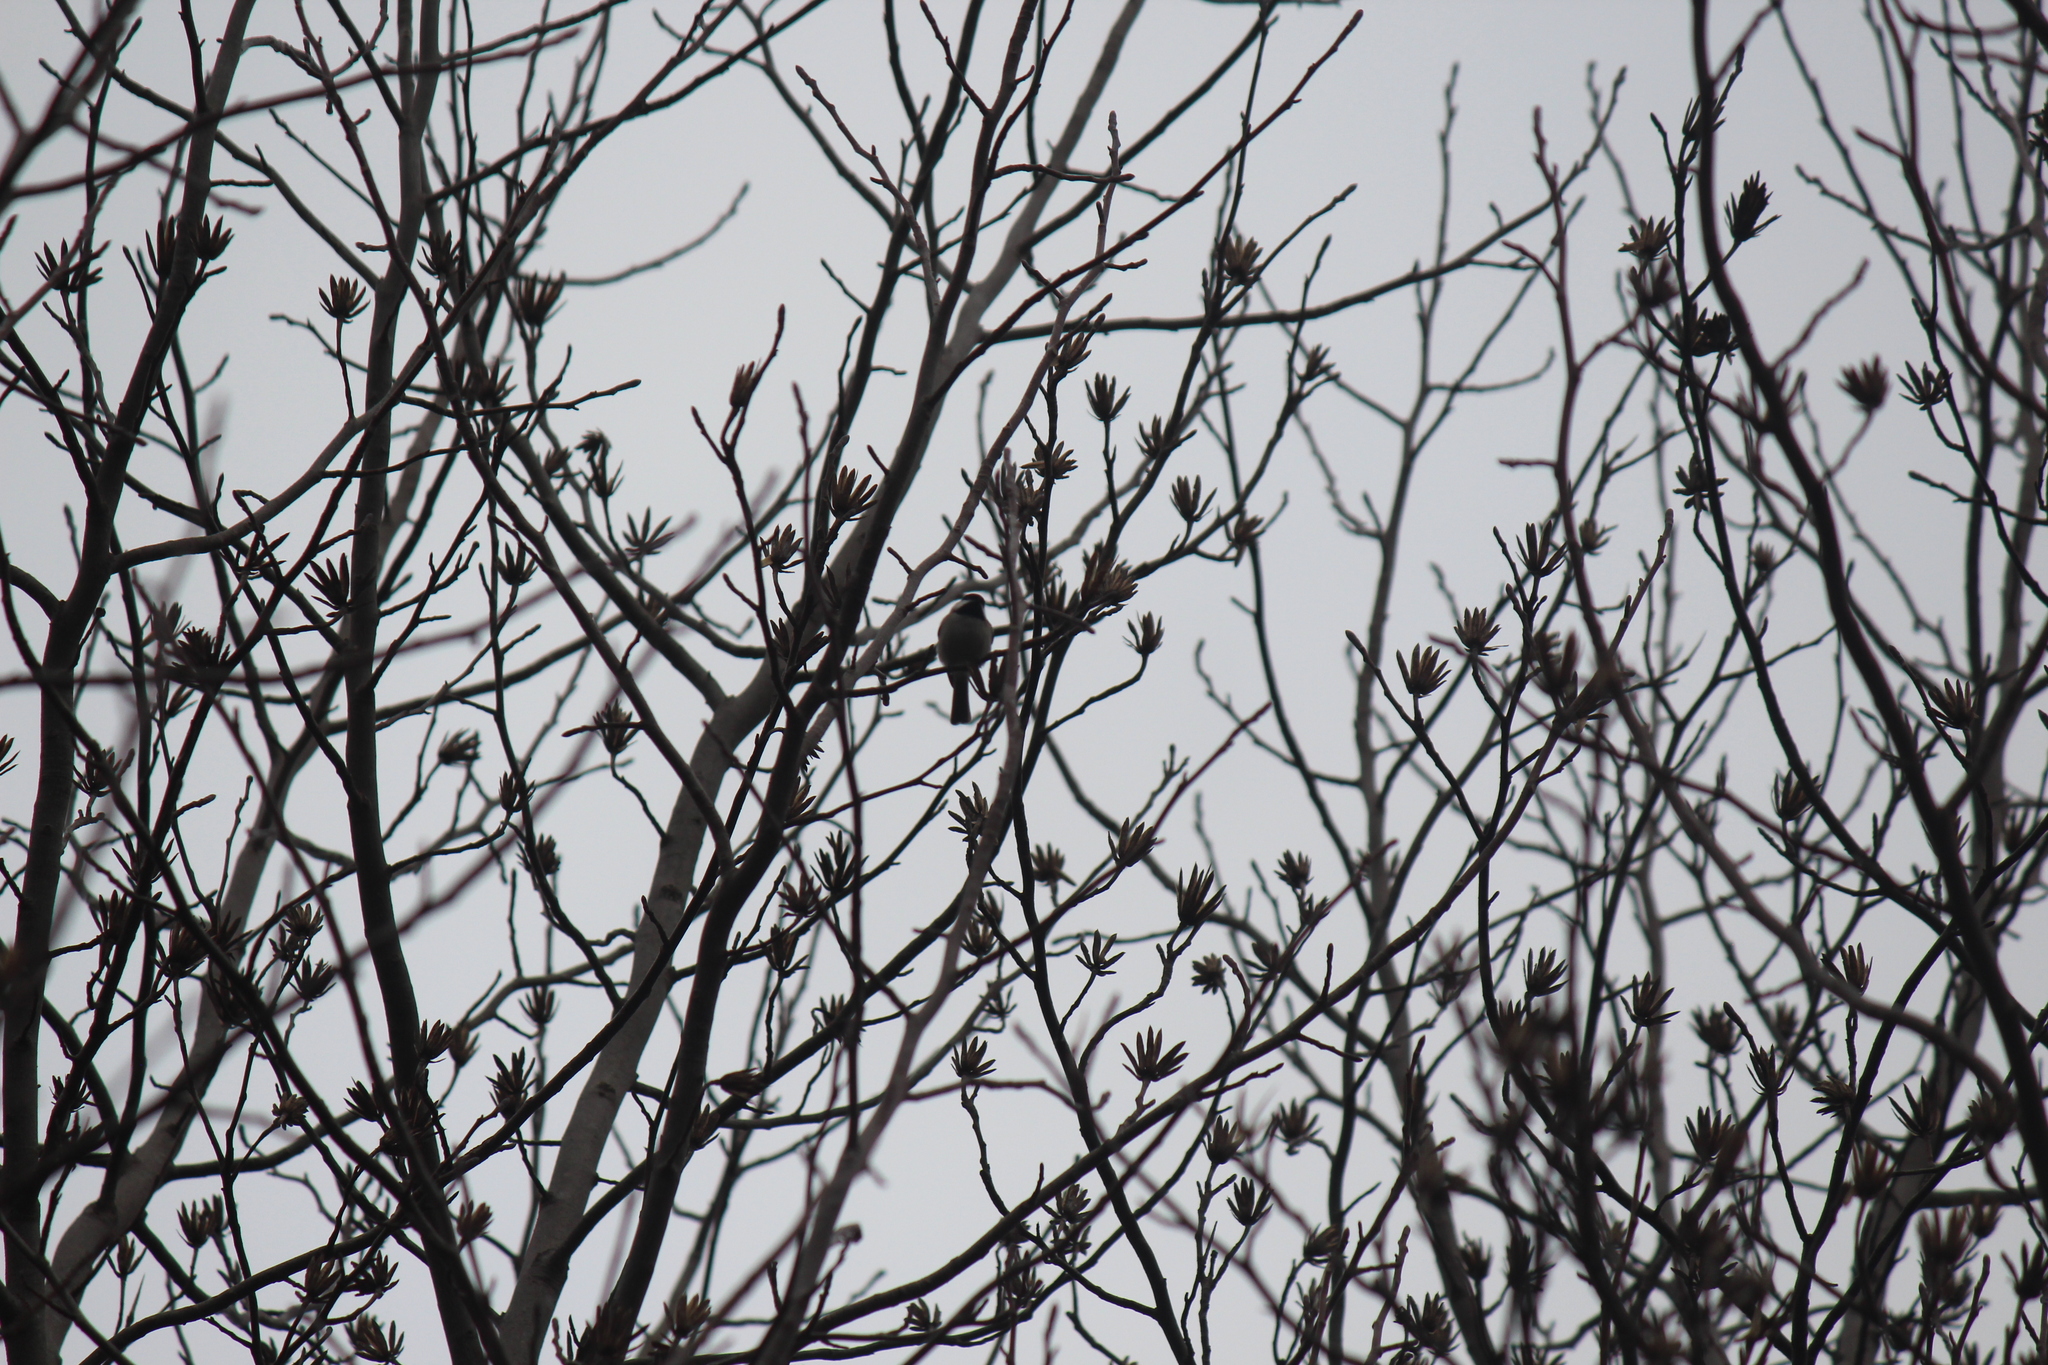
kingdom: Animalia
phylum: Chordata
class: Aves
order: Passeriformes
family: Paridae
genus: Poecile
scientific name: Poecile carolinensis
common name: Carolina chickadee
